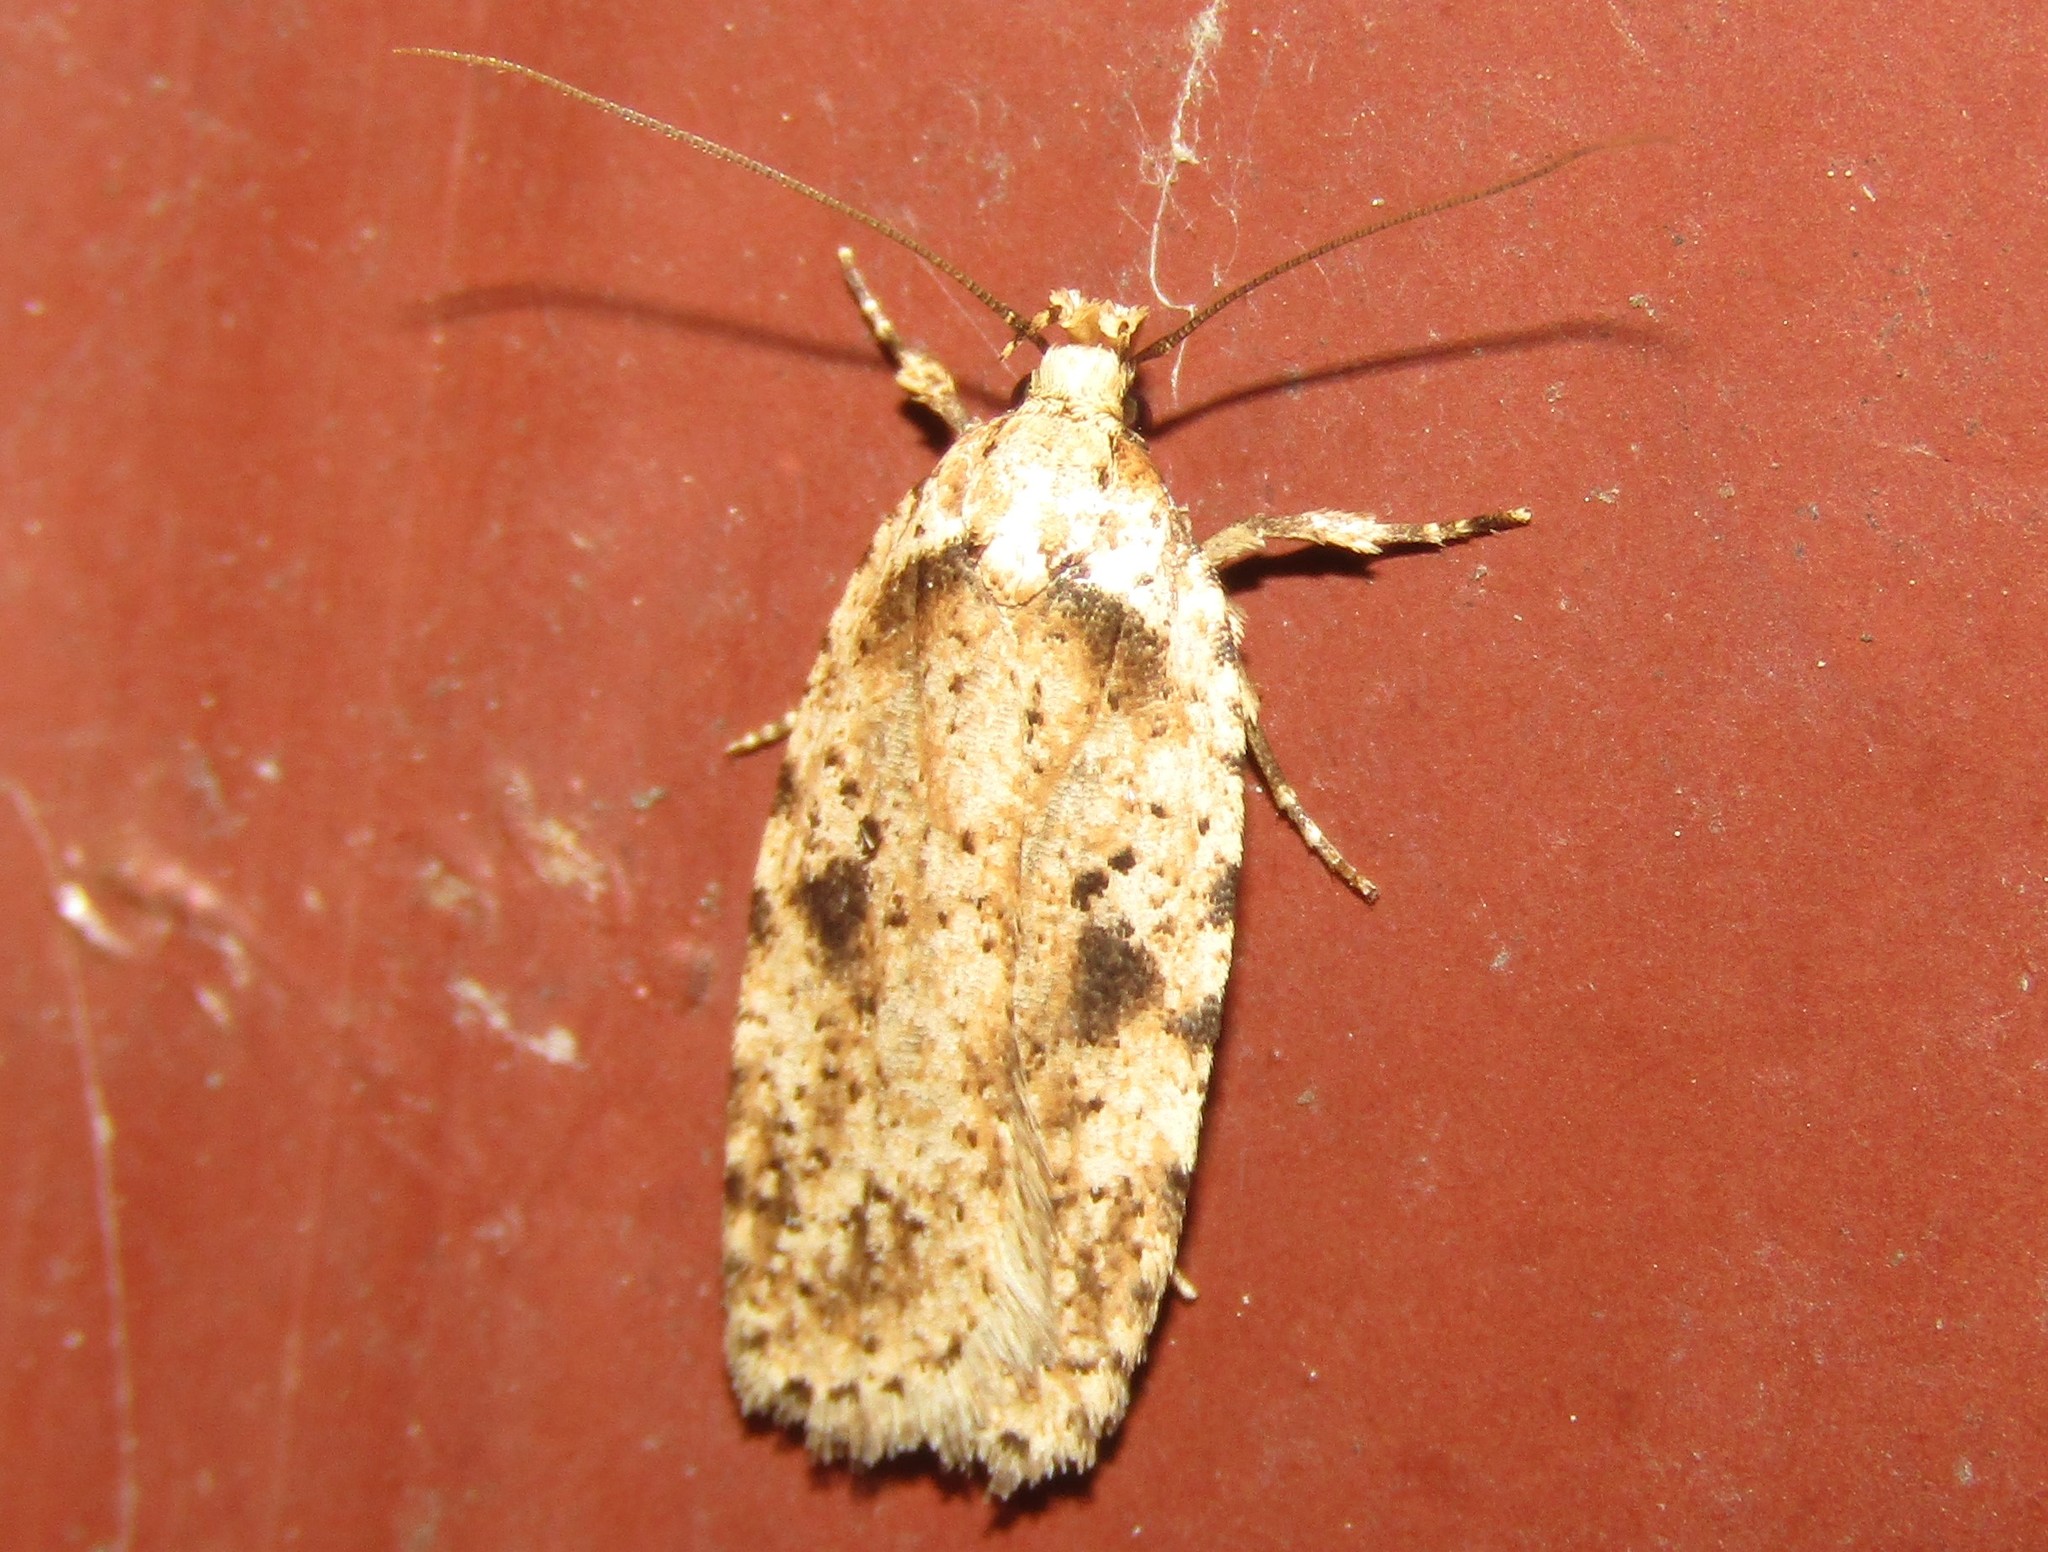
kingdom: Animalia
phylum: Arthropoda
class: Insecta
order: Lepidoptera
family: Depressariidae
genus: Agonopterix
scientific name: Agonopterix arenella
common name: Brindled flat-body
